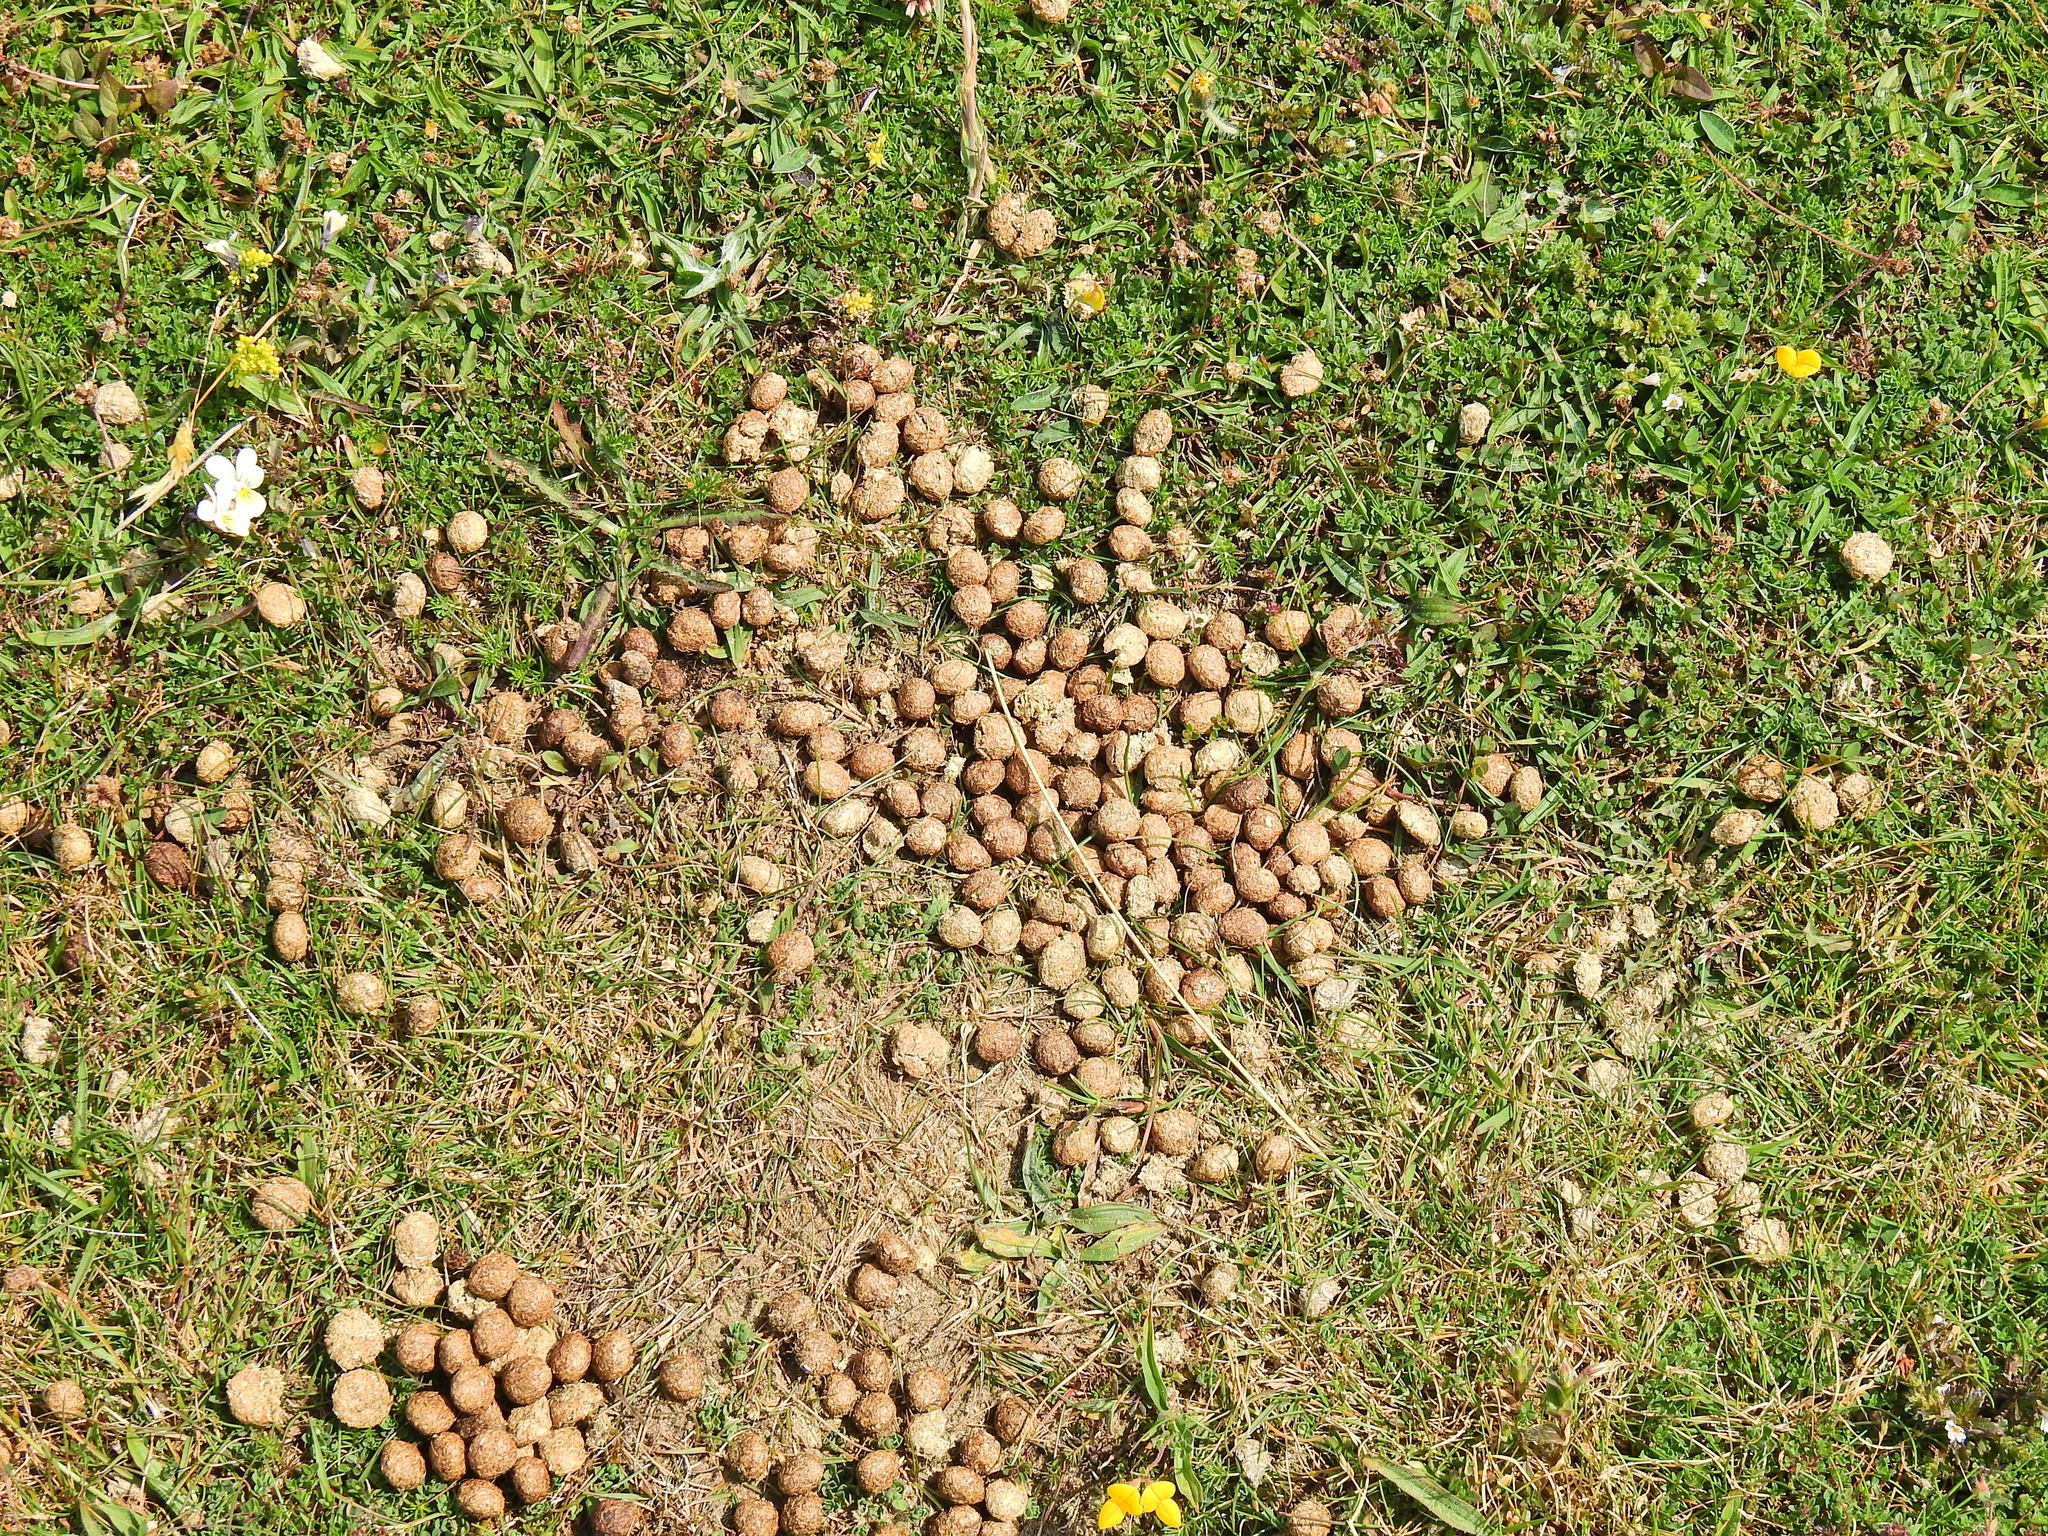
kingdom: Animalia
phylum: Chordata
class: Mammalia
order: Lagomorpha
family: Leporidae
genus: Oryctolagus
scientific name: Oryctolagus cuniculus
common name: European rabbit
